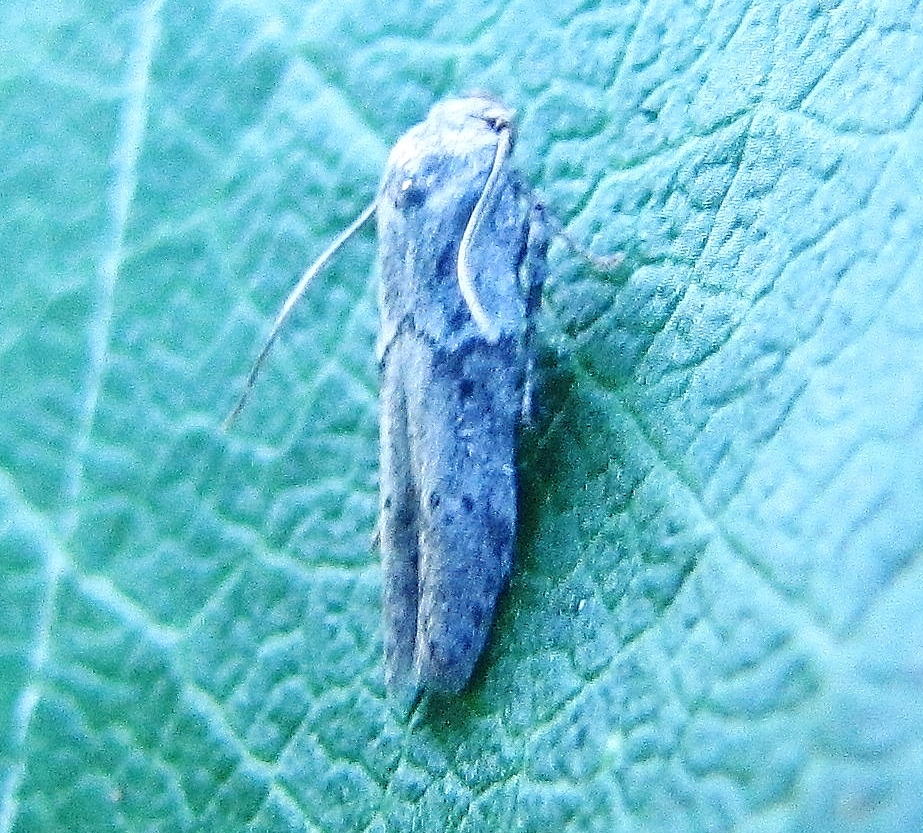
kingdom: Animalia
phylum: Arthropoda
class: Insecta
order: Lepidoptera
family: Blastobasidae
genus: Blastobasis
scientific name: Blastobasis glandulella
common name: Acorn moth
